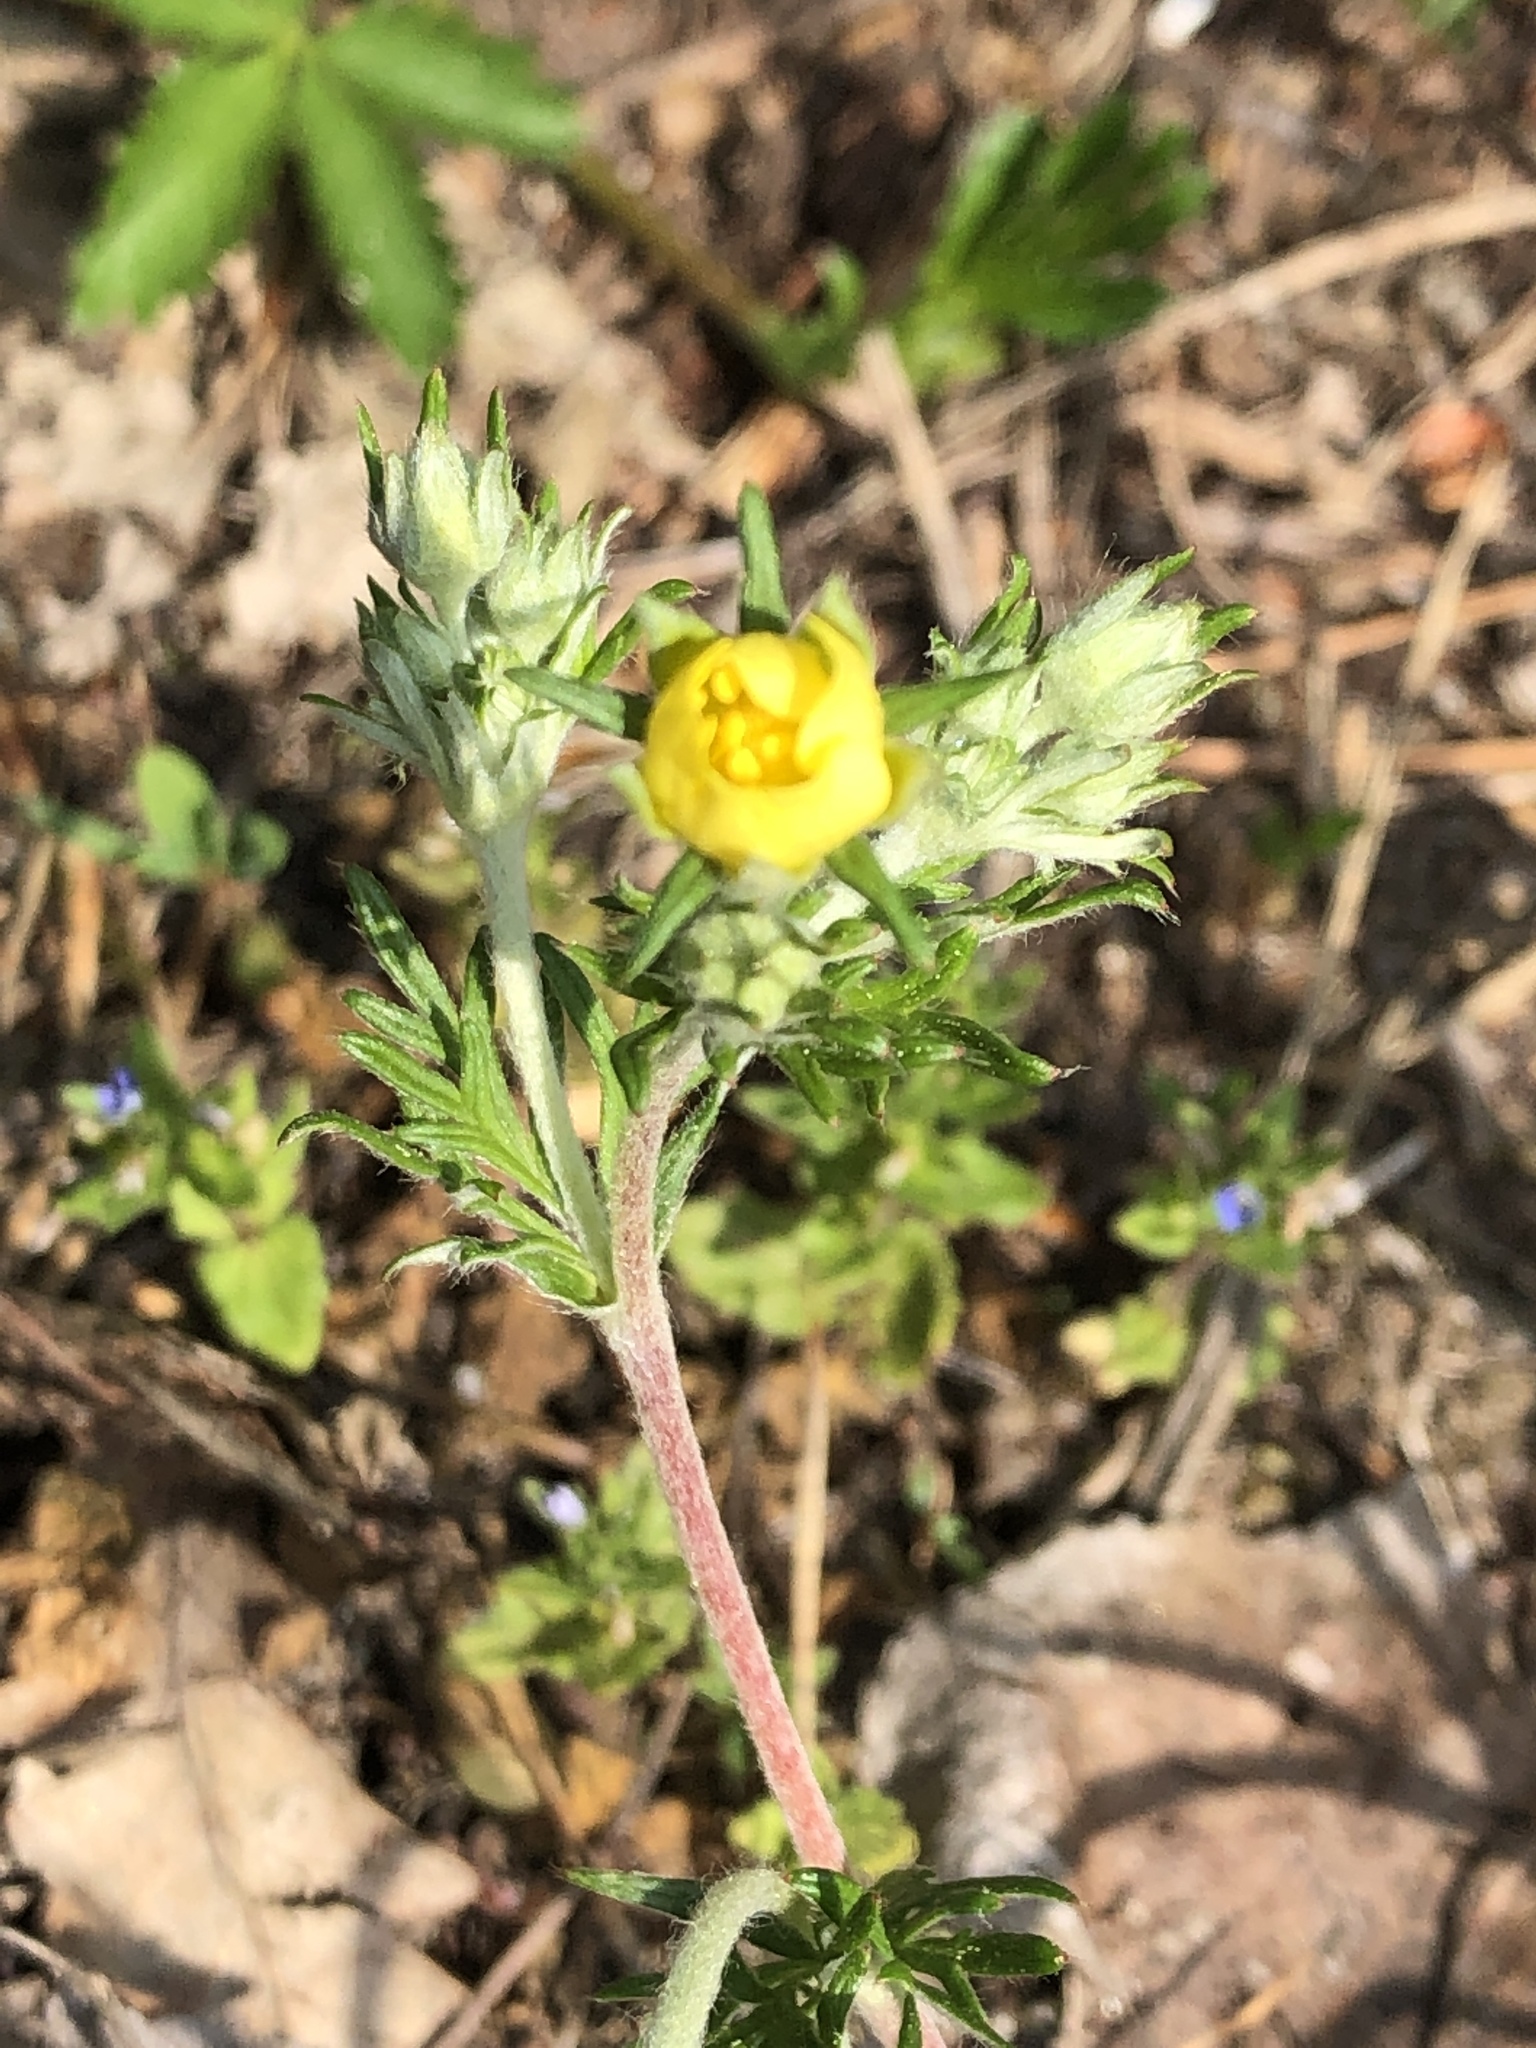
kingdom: Plantae
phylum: Tracheophyta
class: Magnoliopsida
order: Rosales
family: Rosaceae
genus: Potentilla
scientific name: Potentilla argentea
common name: Hoary cinquefoil
